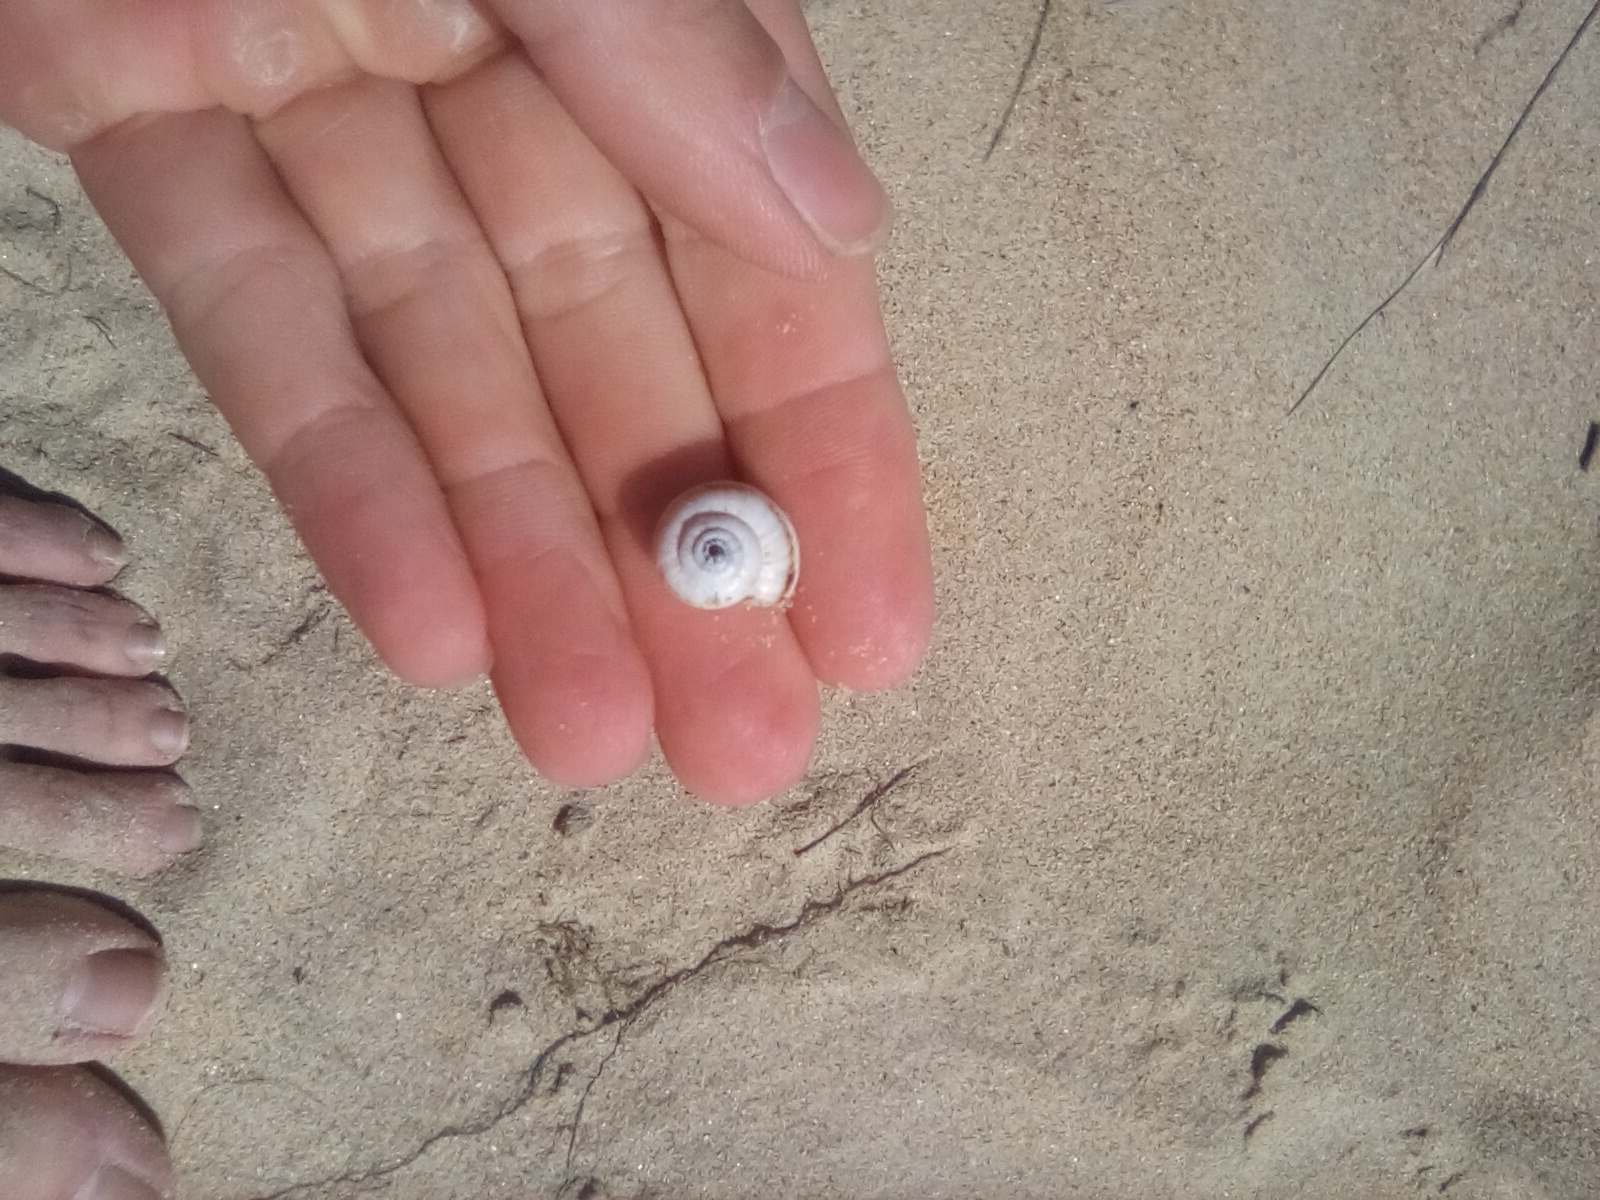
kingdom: Animalia
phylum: Mollusca
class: Gastropoda
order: Stylommatophora
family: Geomitridae
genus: Xeropicta
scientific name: Xeropicta krynickii
